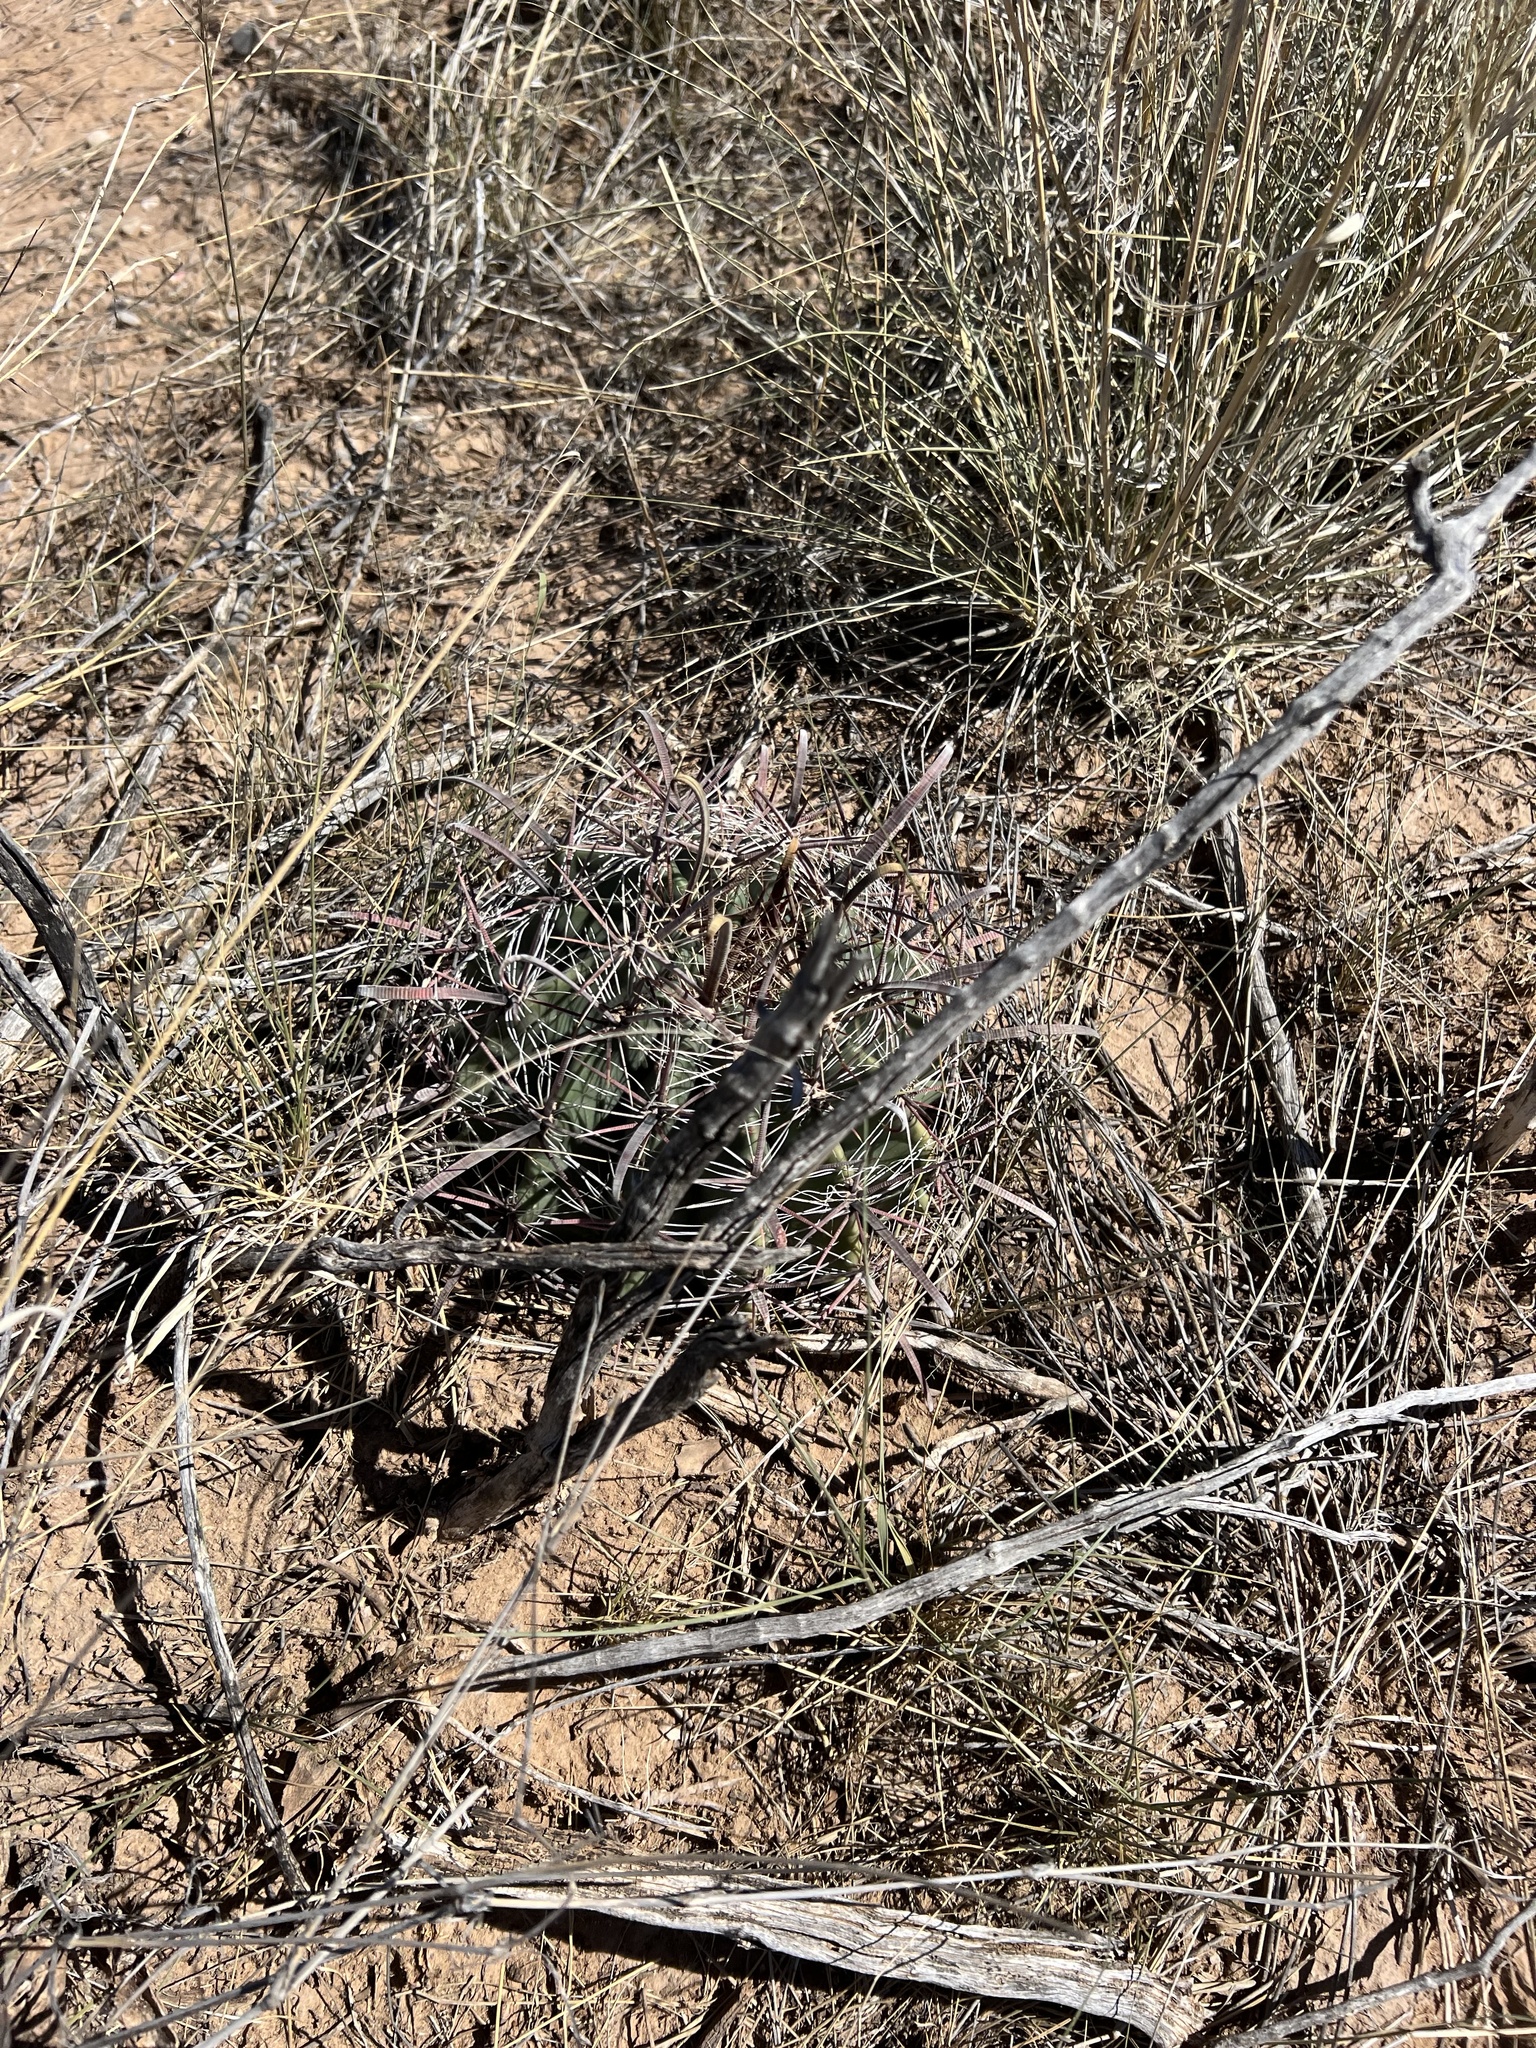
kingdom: Plantae
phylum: Tracheophyta
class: Magnoliopsida
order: Caryophyllales
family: Cactaceae
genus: Ferocactus
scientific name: Ferocactus wislizeni
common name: Candy barrel cactus
